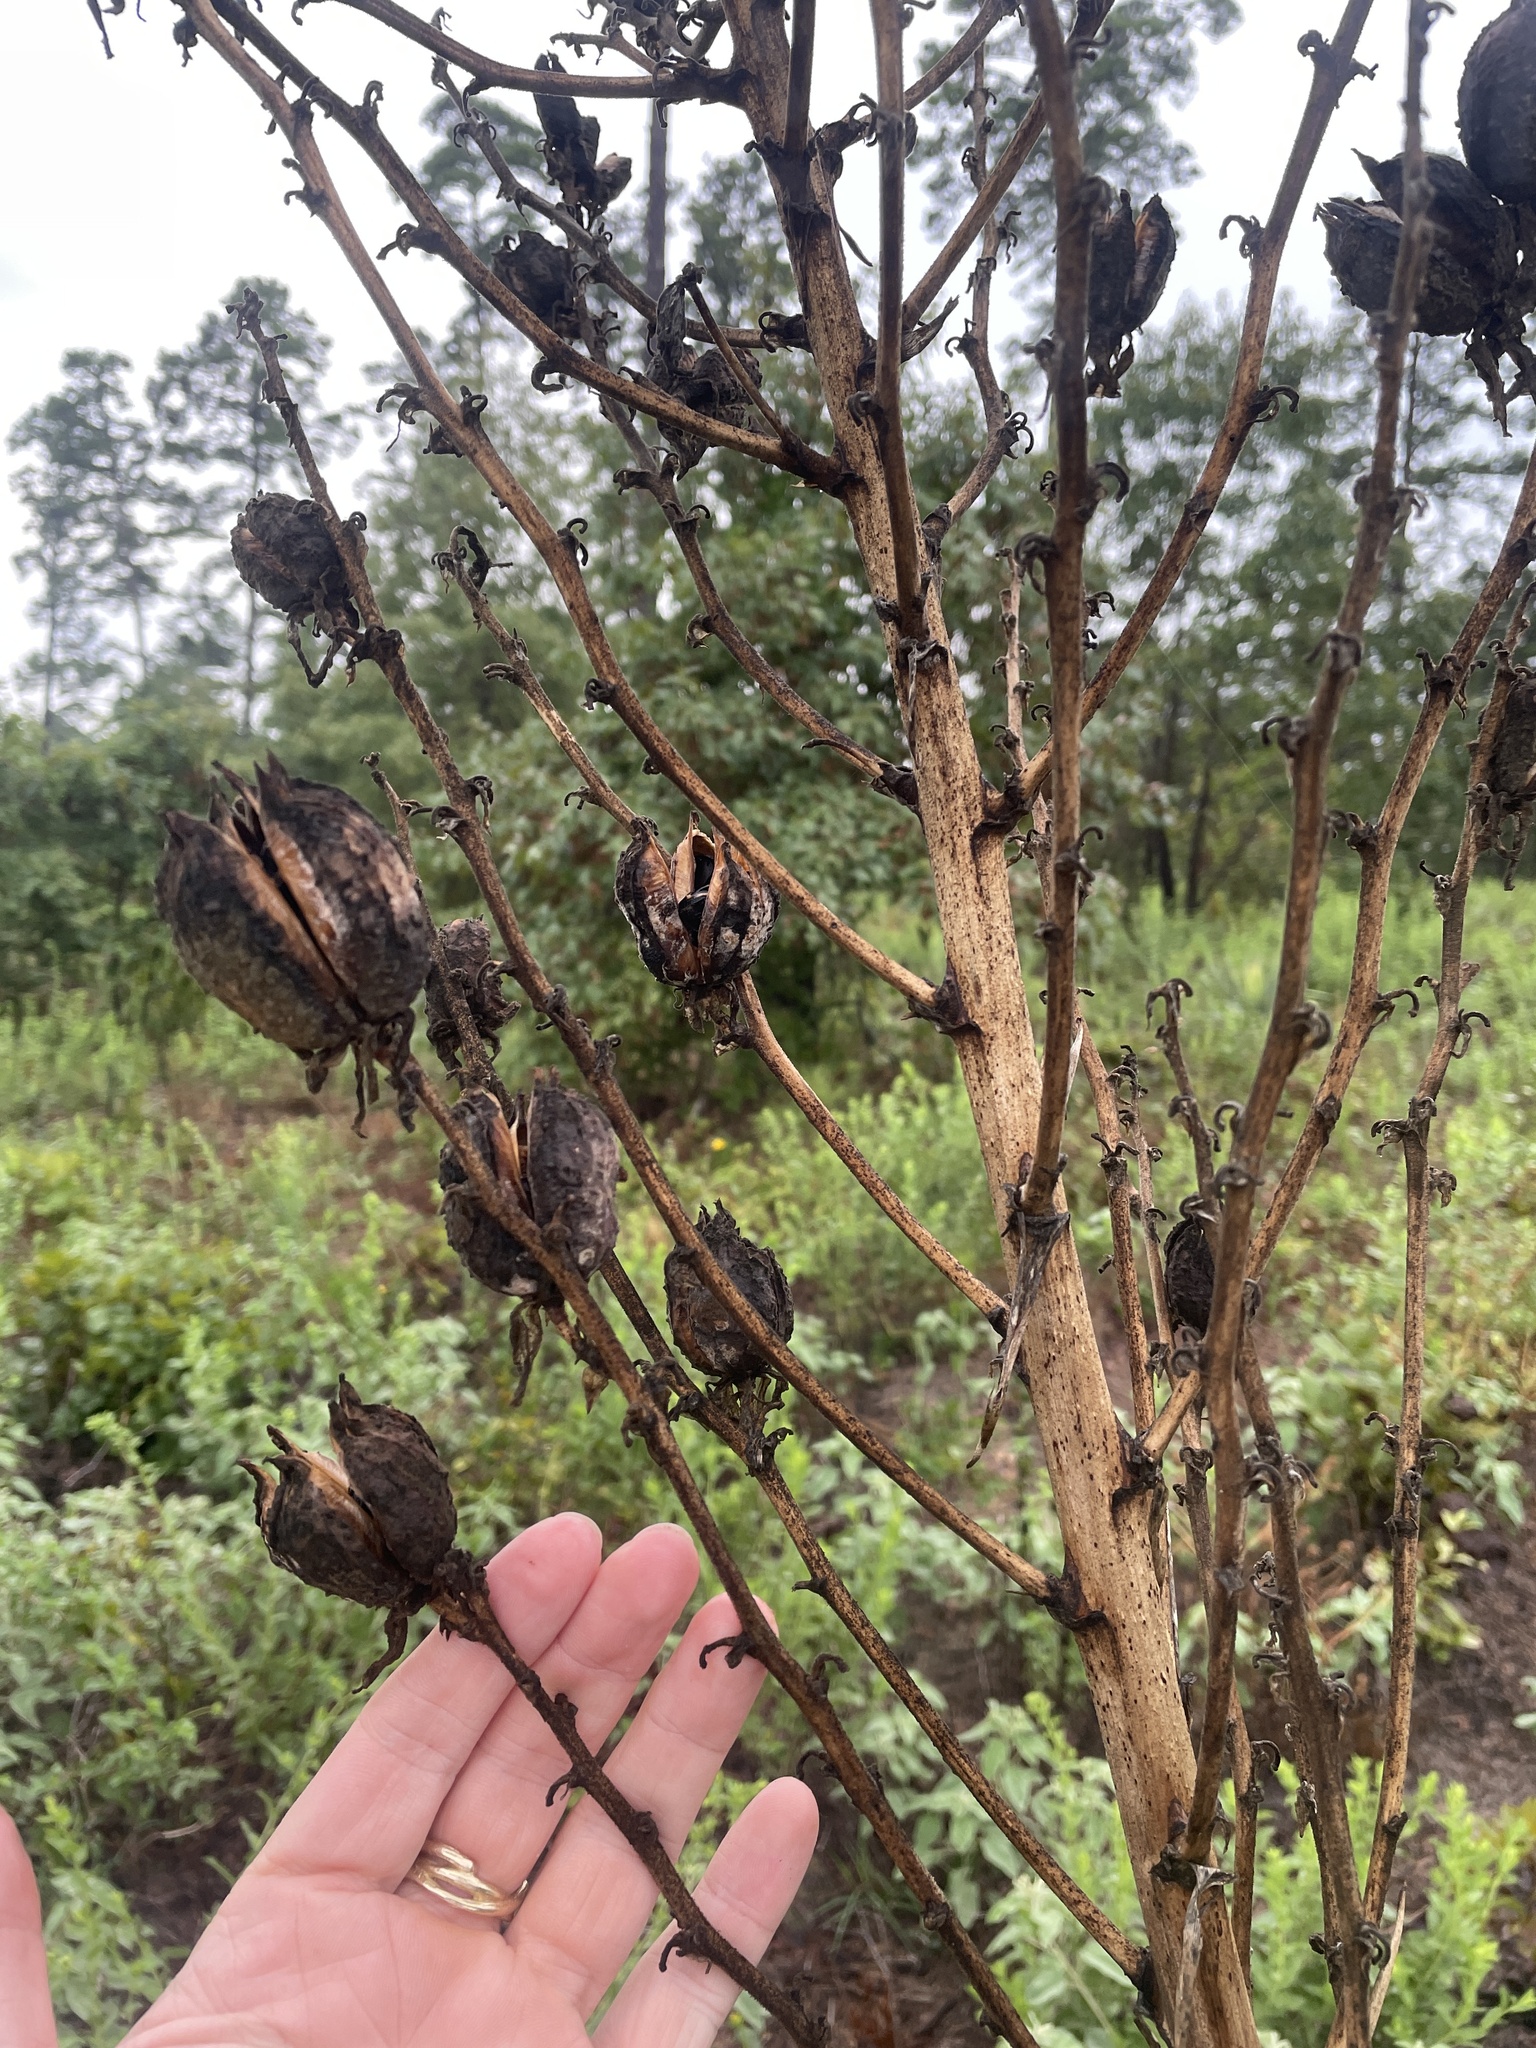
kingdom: Plantae
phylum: Tracheophyta
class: Liliopsida
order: Asparagales
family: Asparagaceae
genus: Yucca
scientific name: Yucca flaccida
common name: Adam's-needle
